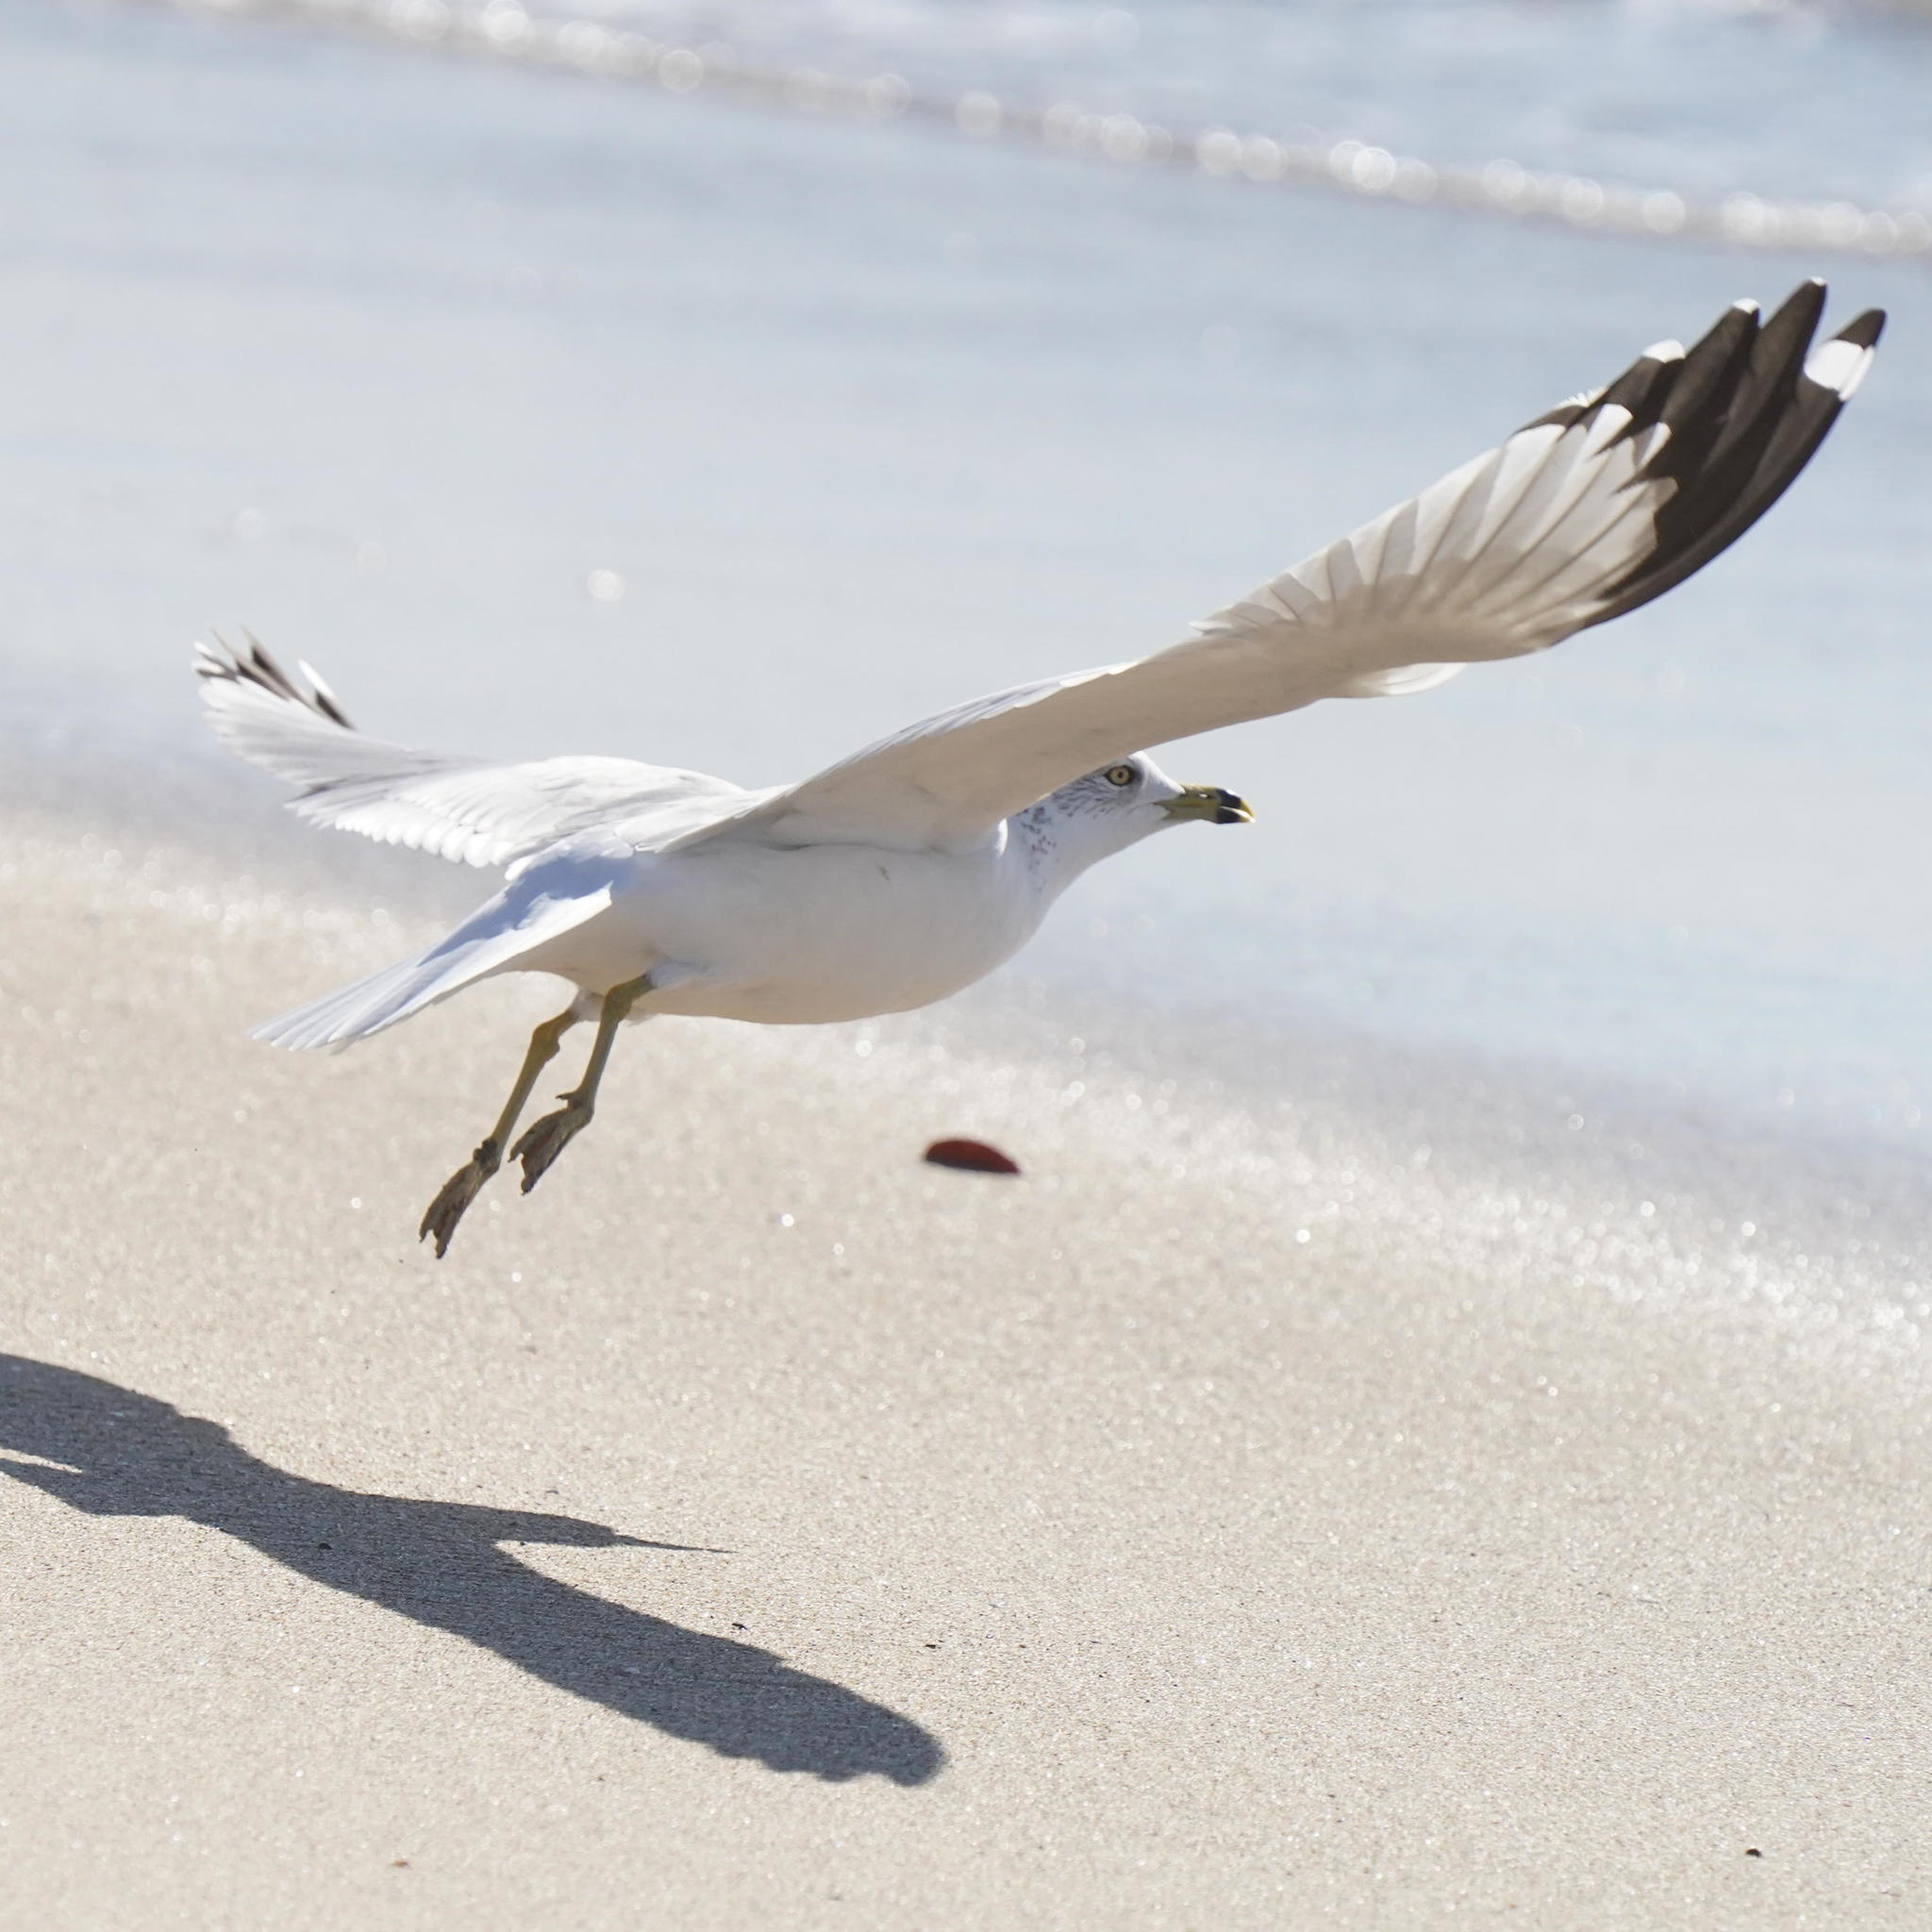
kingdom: Animalia
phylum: Chordata
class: Aves
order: Charadriiformes
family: Laridae
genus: Larus
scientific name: Larus delawarensis
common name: Ring-billed gull
